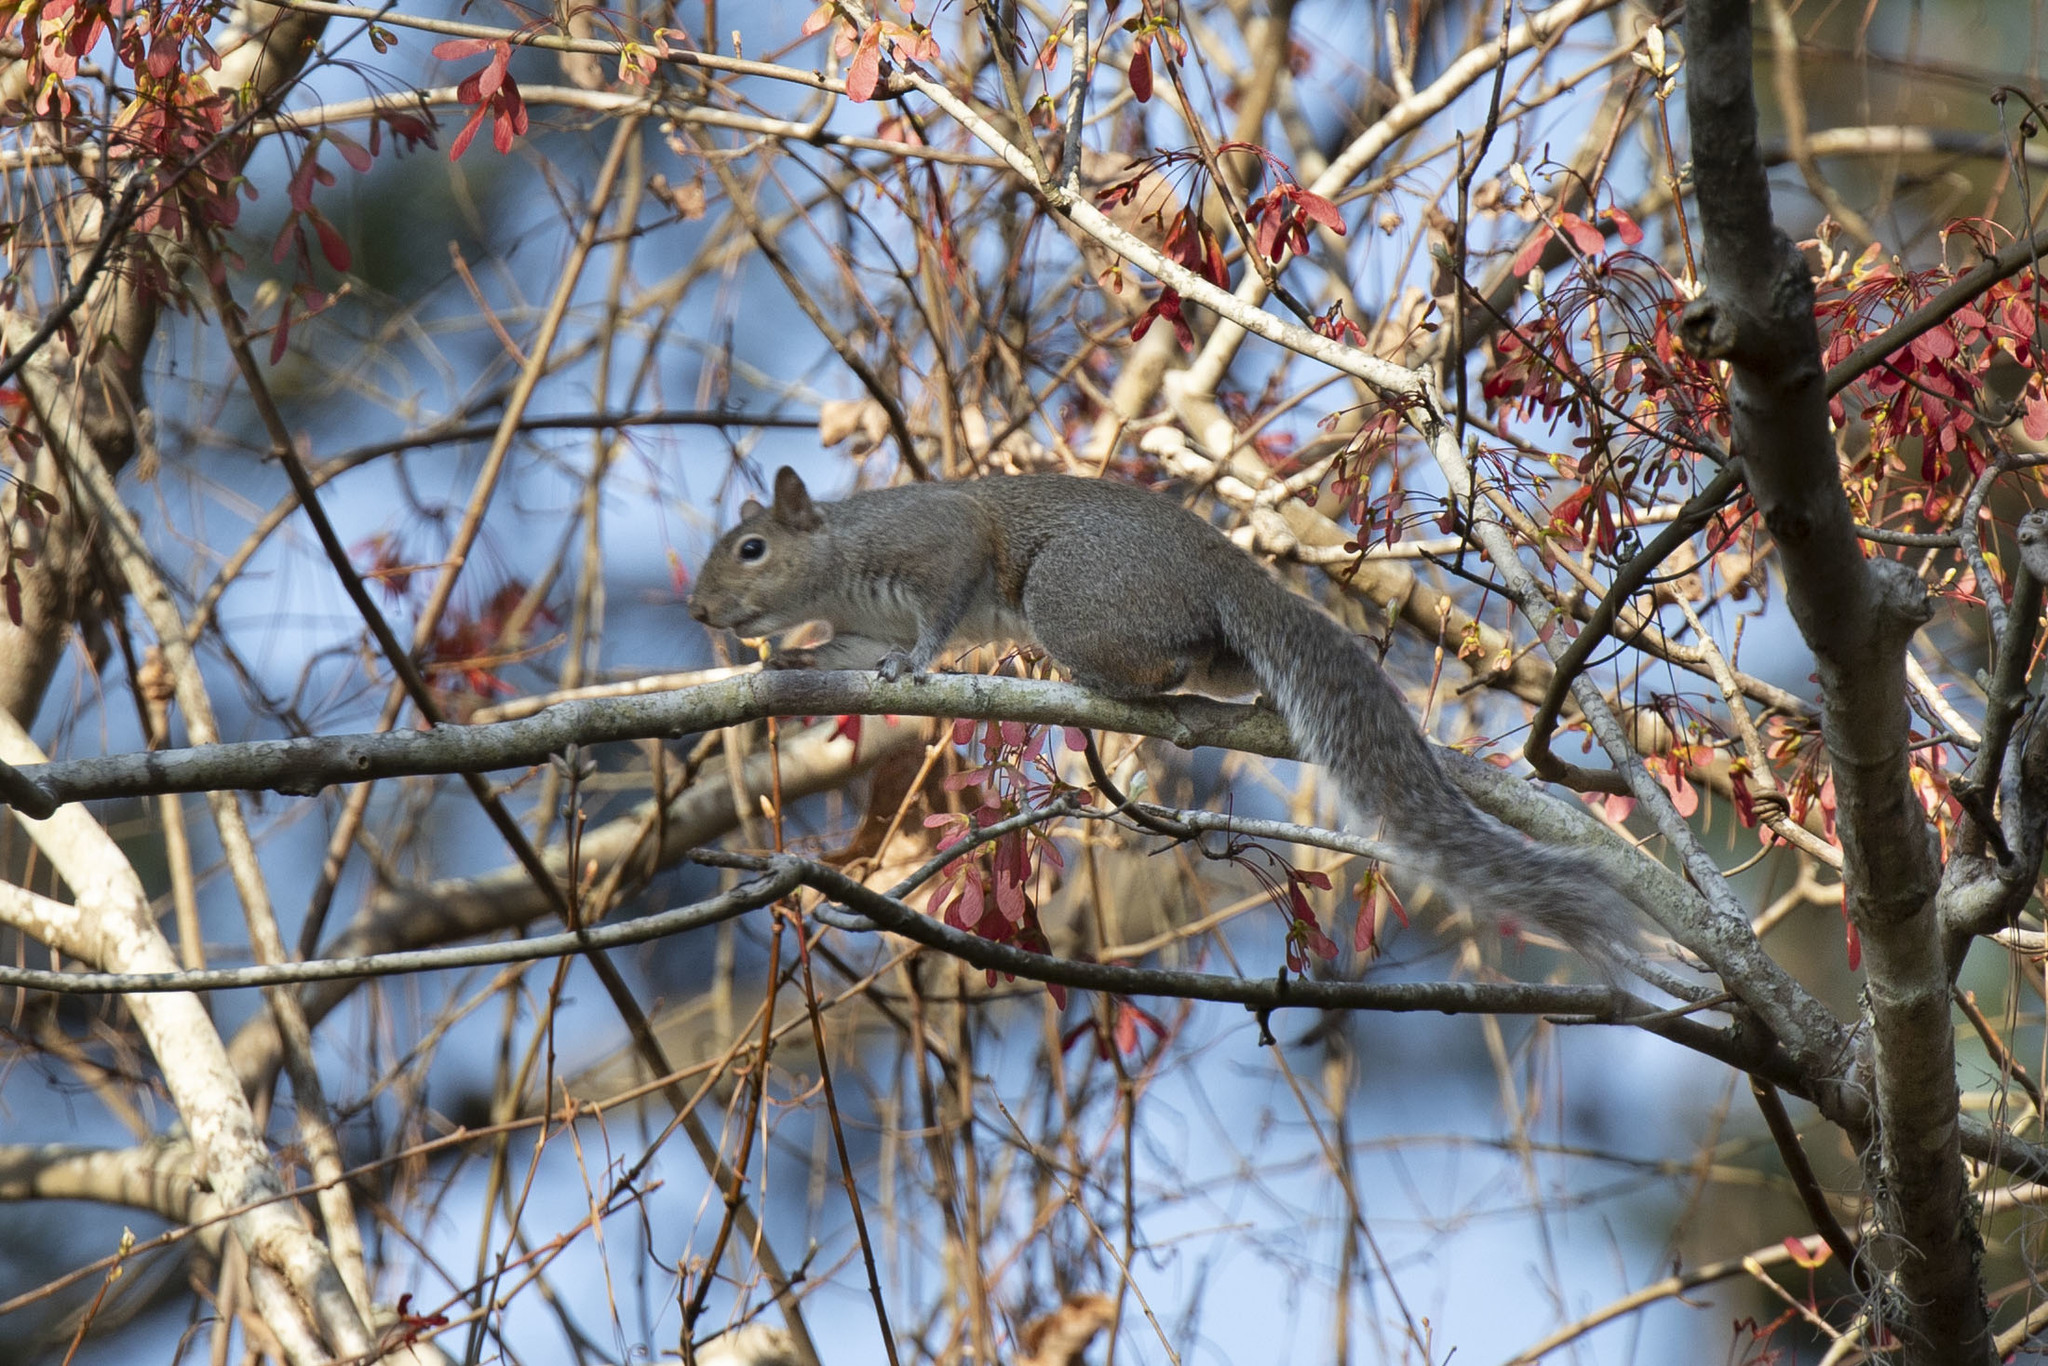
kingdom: Animalia
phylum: Chordata
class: Mammalia
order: Rodentia
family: Sciuridae
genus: Sciurus
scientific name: Sciurus carolinensis
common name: Eastern gray squirrel
